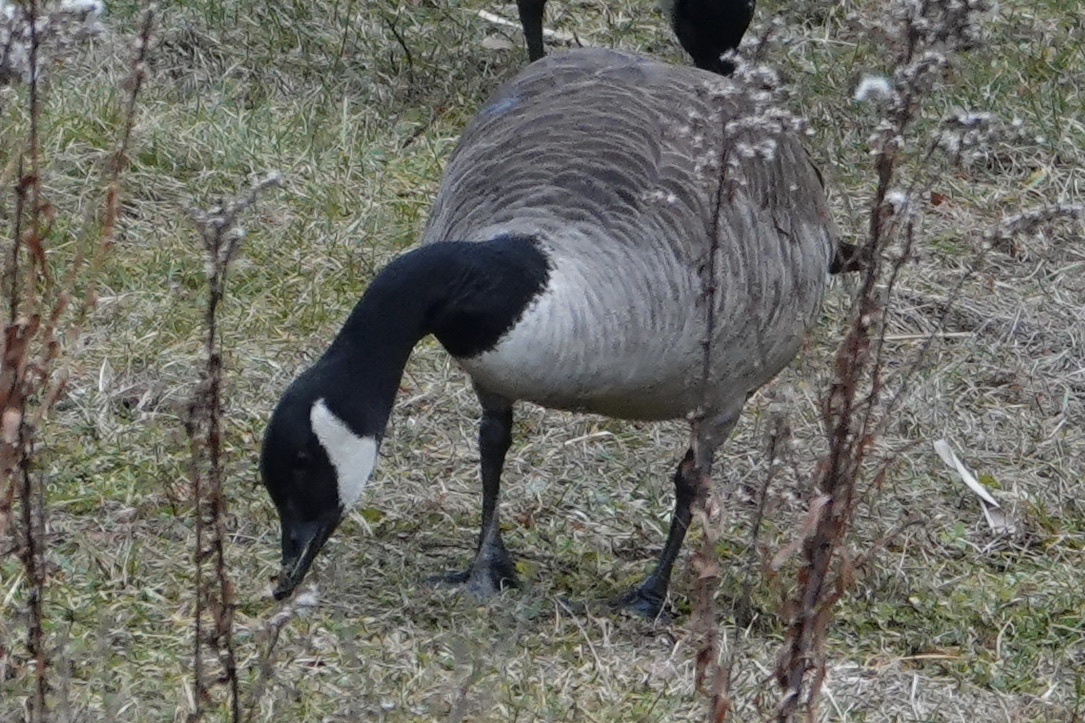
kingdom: Animalia
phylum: Chordata
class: Aves
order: Anseriformes
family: Anatidae
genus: Branta
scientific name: Branta canadensis
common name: Canada goose
